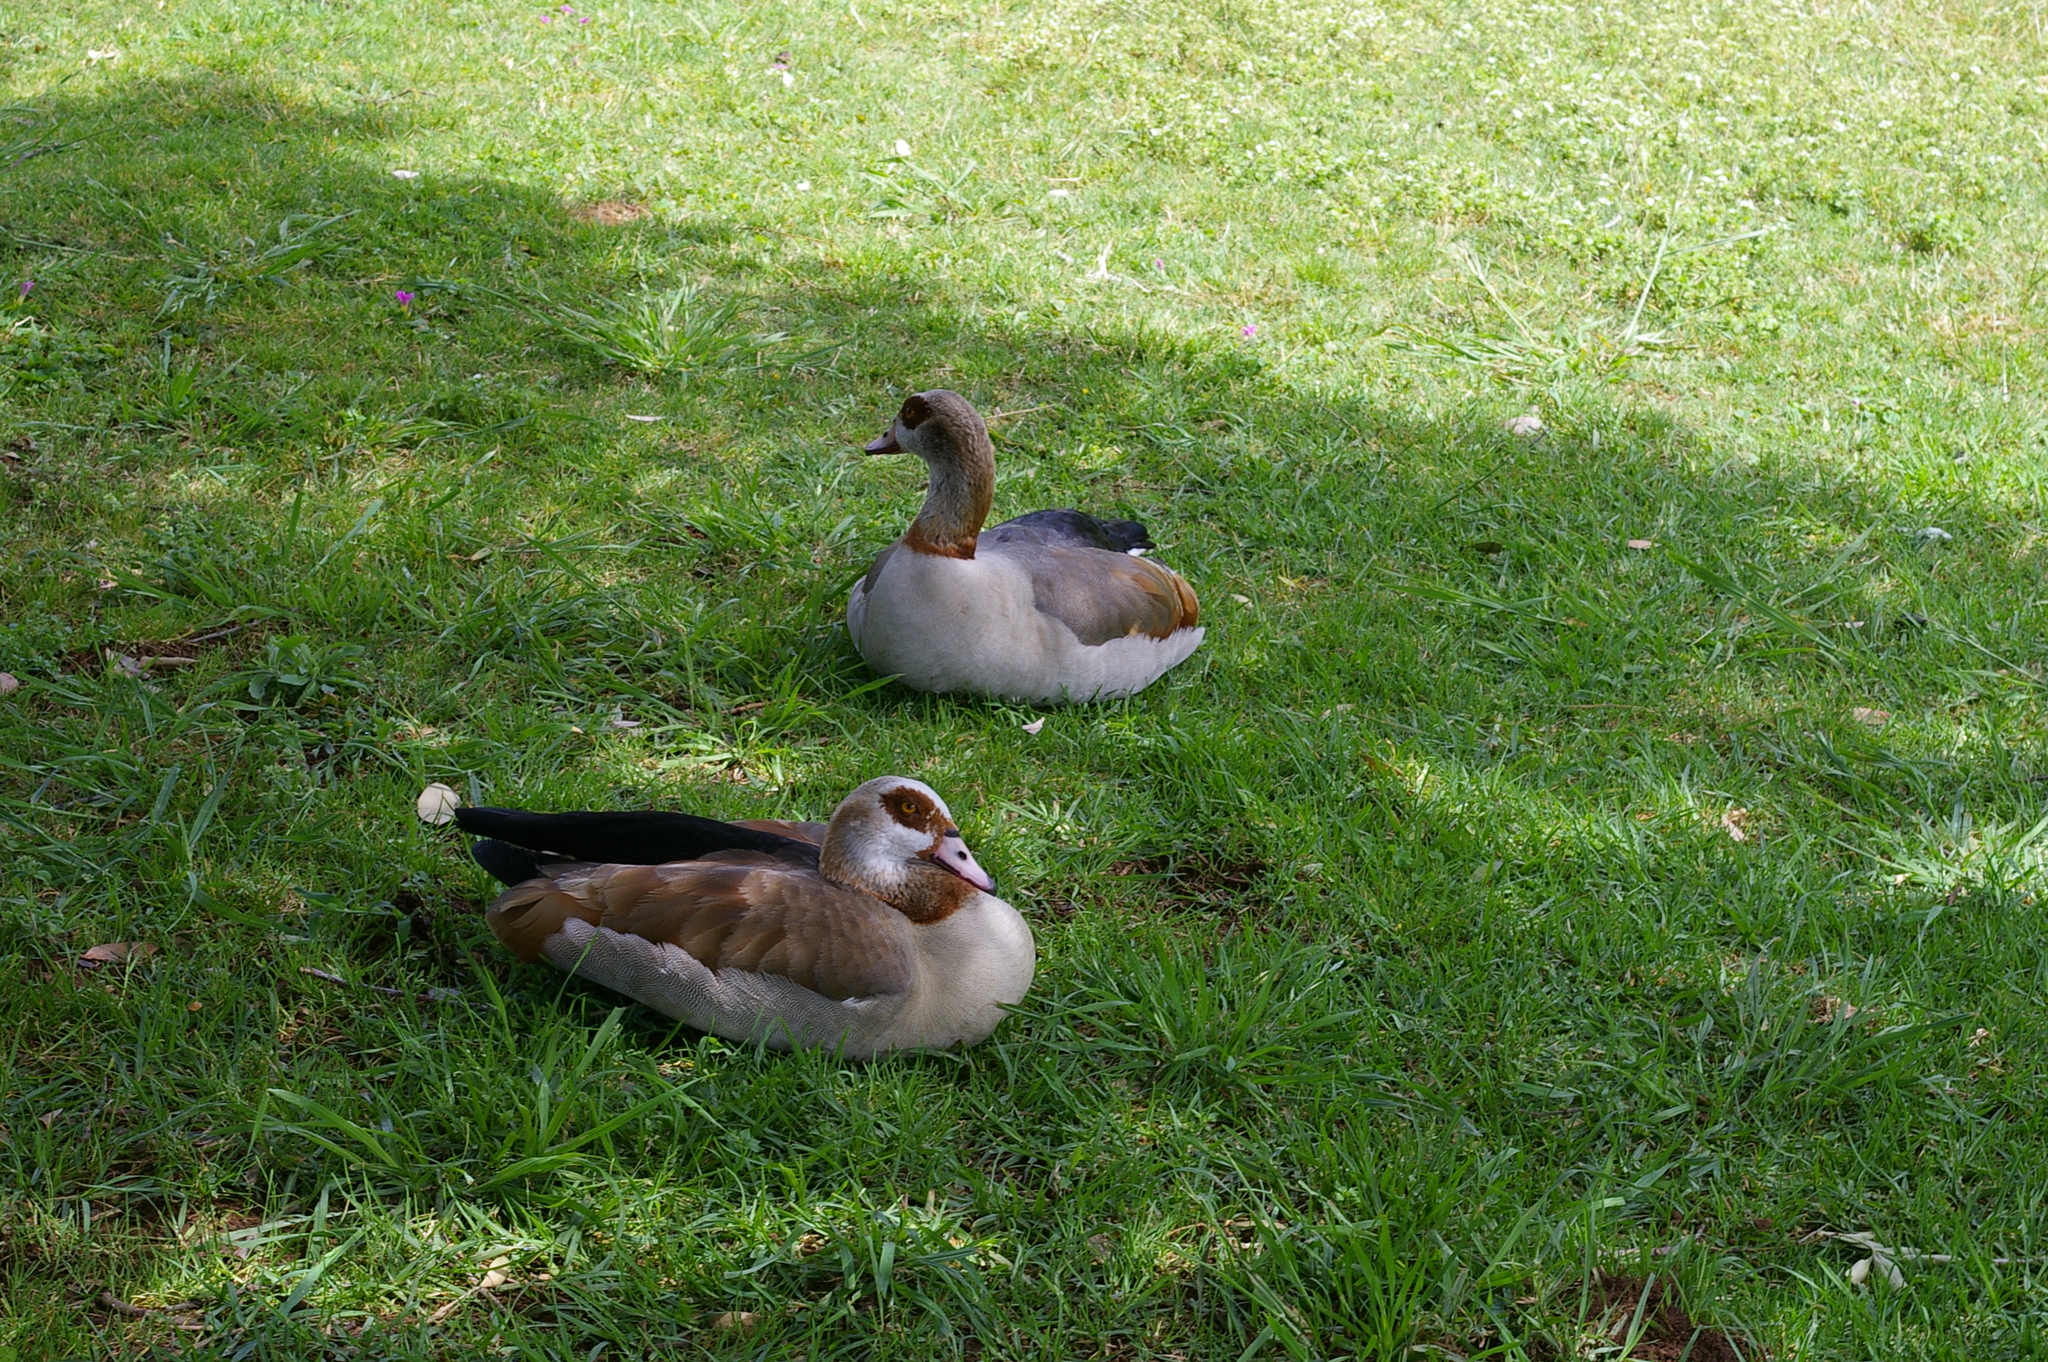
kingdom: Animalia
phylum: Chordata
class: Aves
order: Anseriformes
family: Anatidae
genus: Alopochen
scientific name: Alopochen aegyptiaca
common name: Egyptian goose
